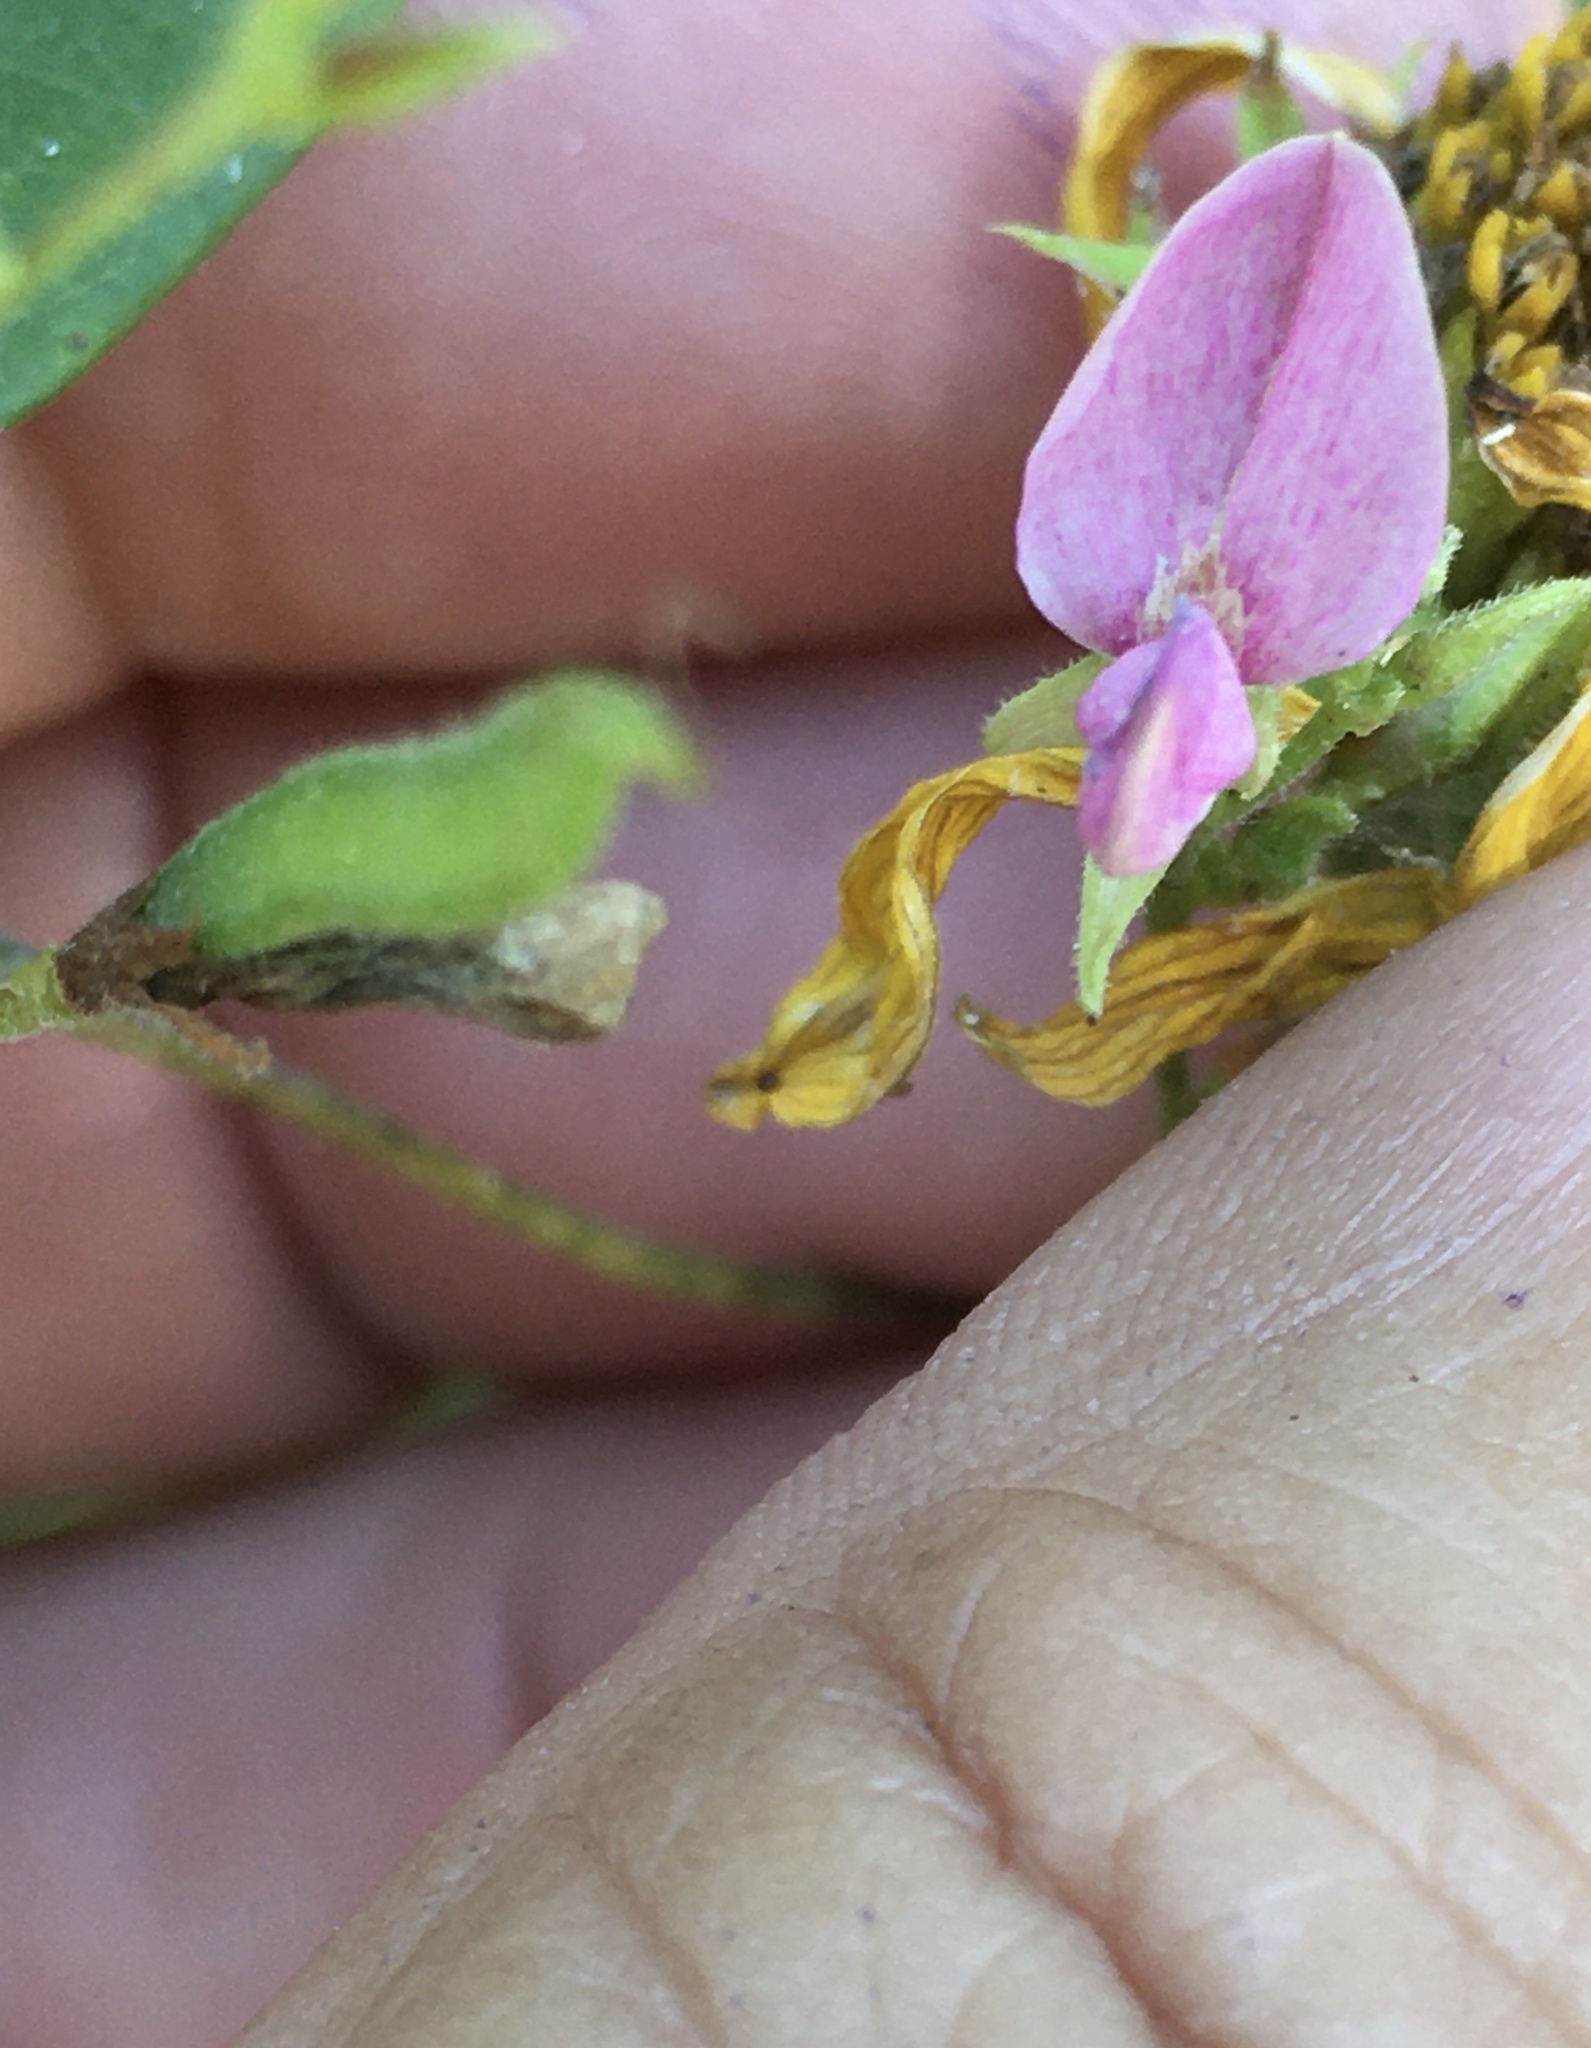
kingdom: Plantae
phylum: Tracheophyta
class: Magnoliopsida
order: Fabales
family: Fabaceae
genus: Galactia
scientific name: Galactia regularis
